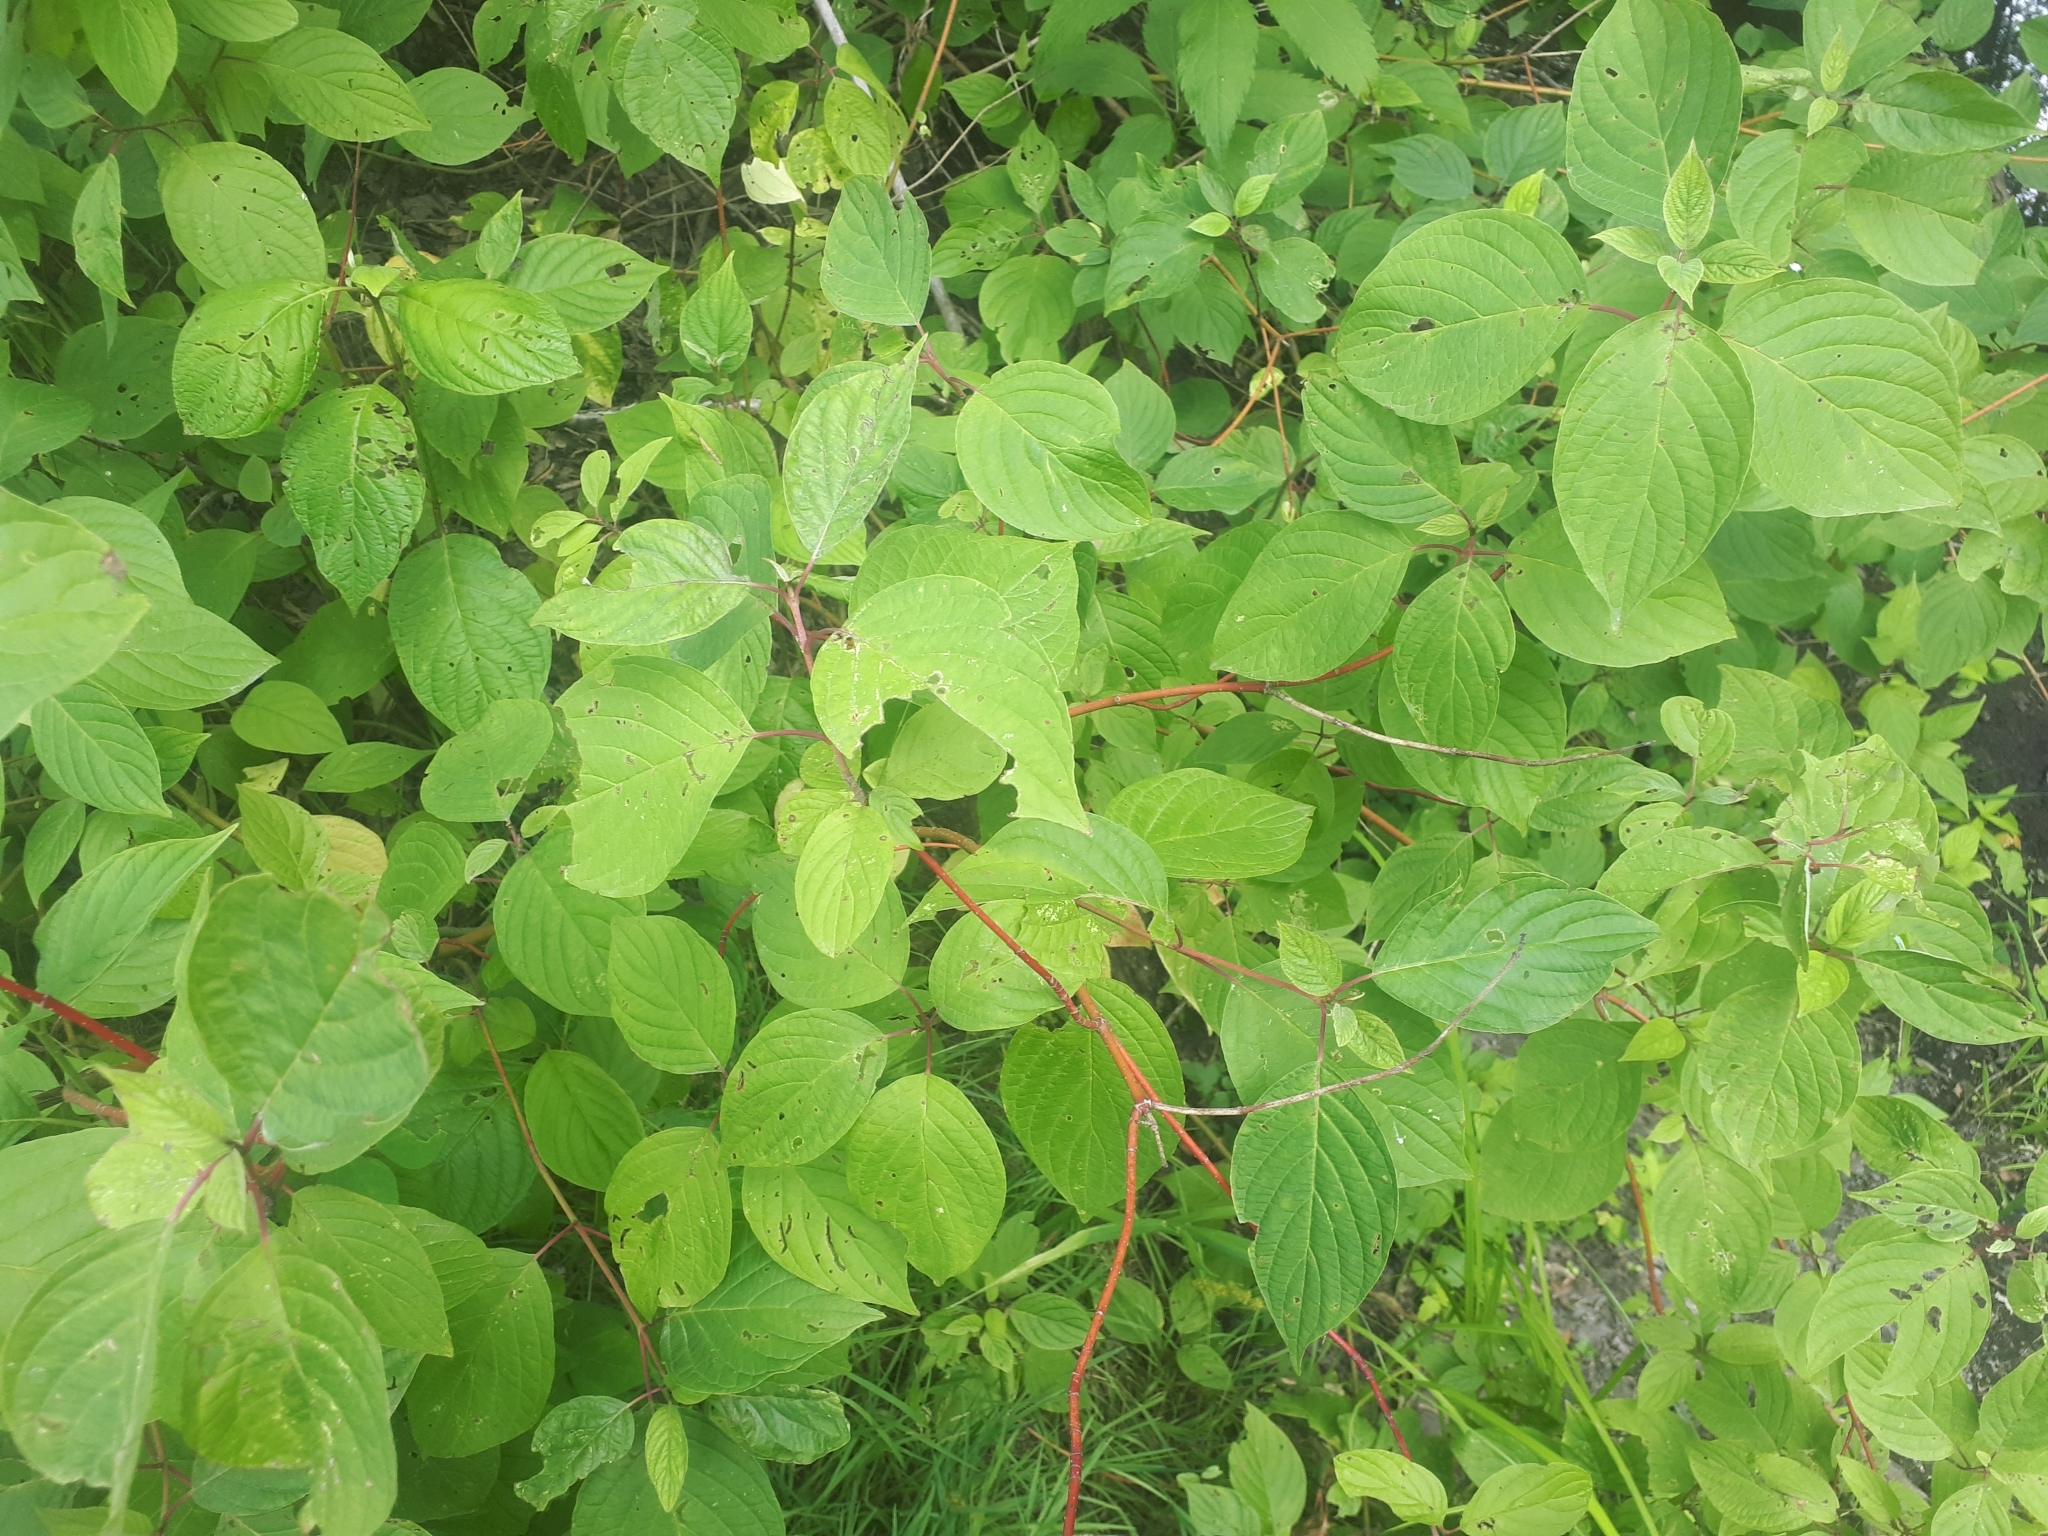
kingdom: Plantae
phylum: Tracheophyta
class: Magnoliopsida
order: Cornales
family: Cornaceae
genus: Cornus
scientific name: Cornus sericea
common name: Red-osier dogwood
